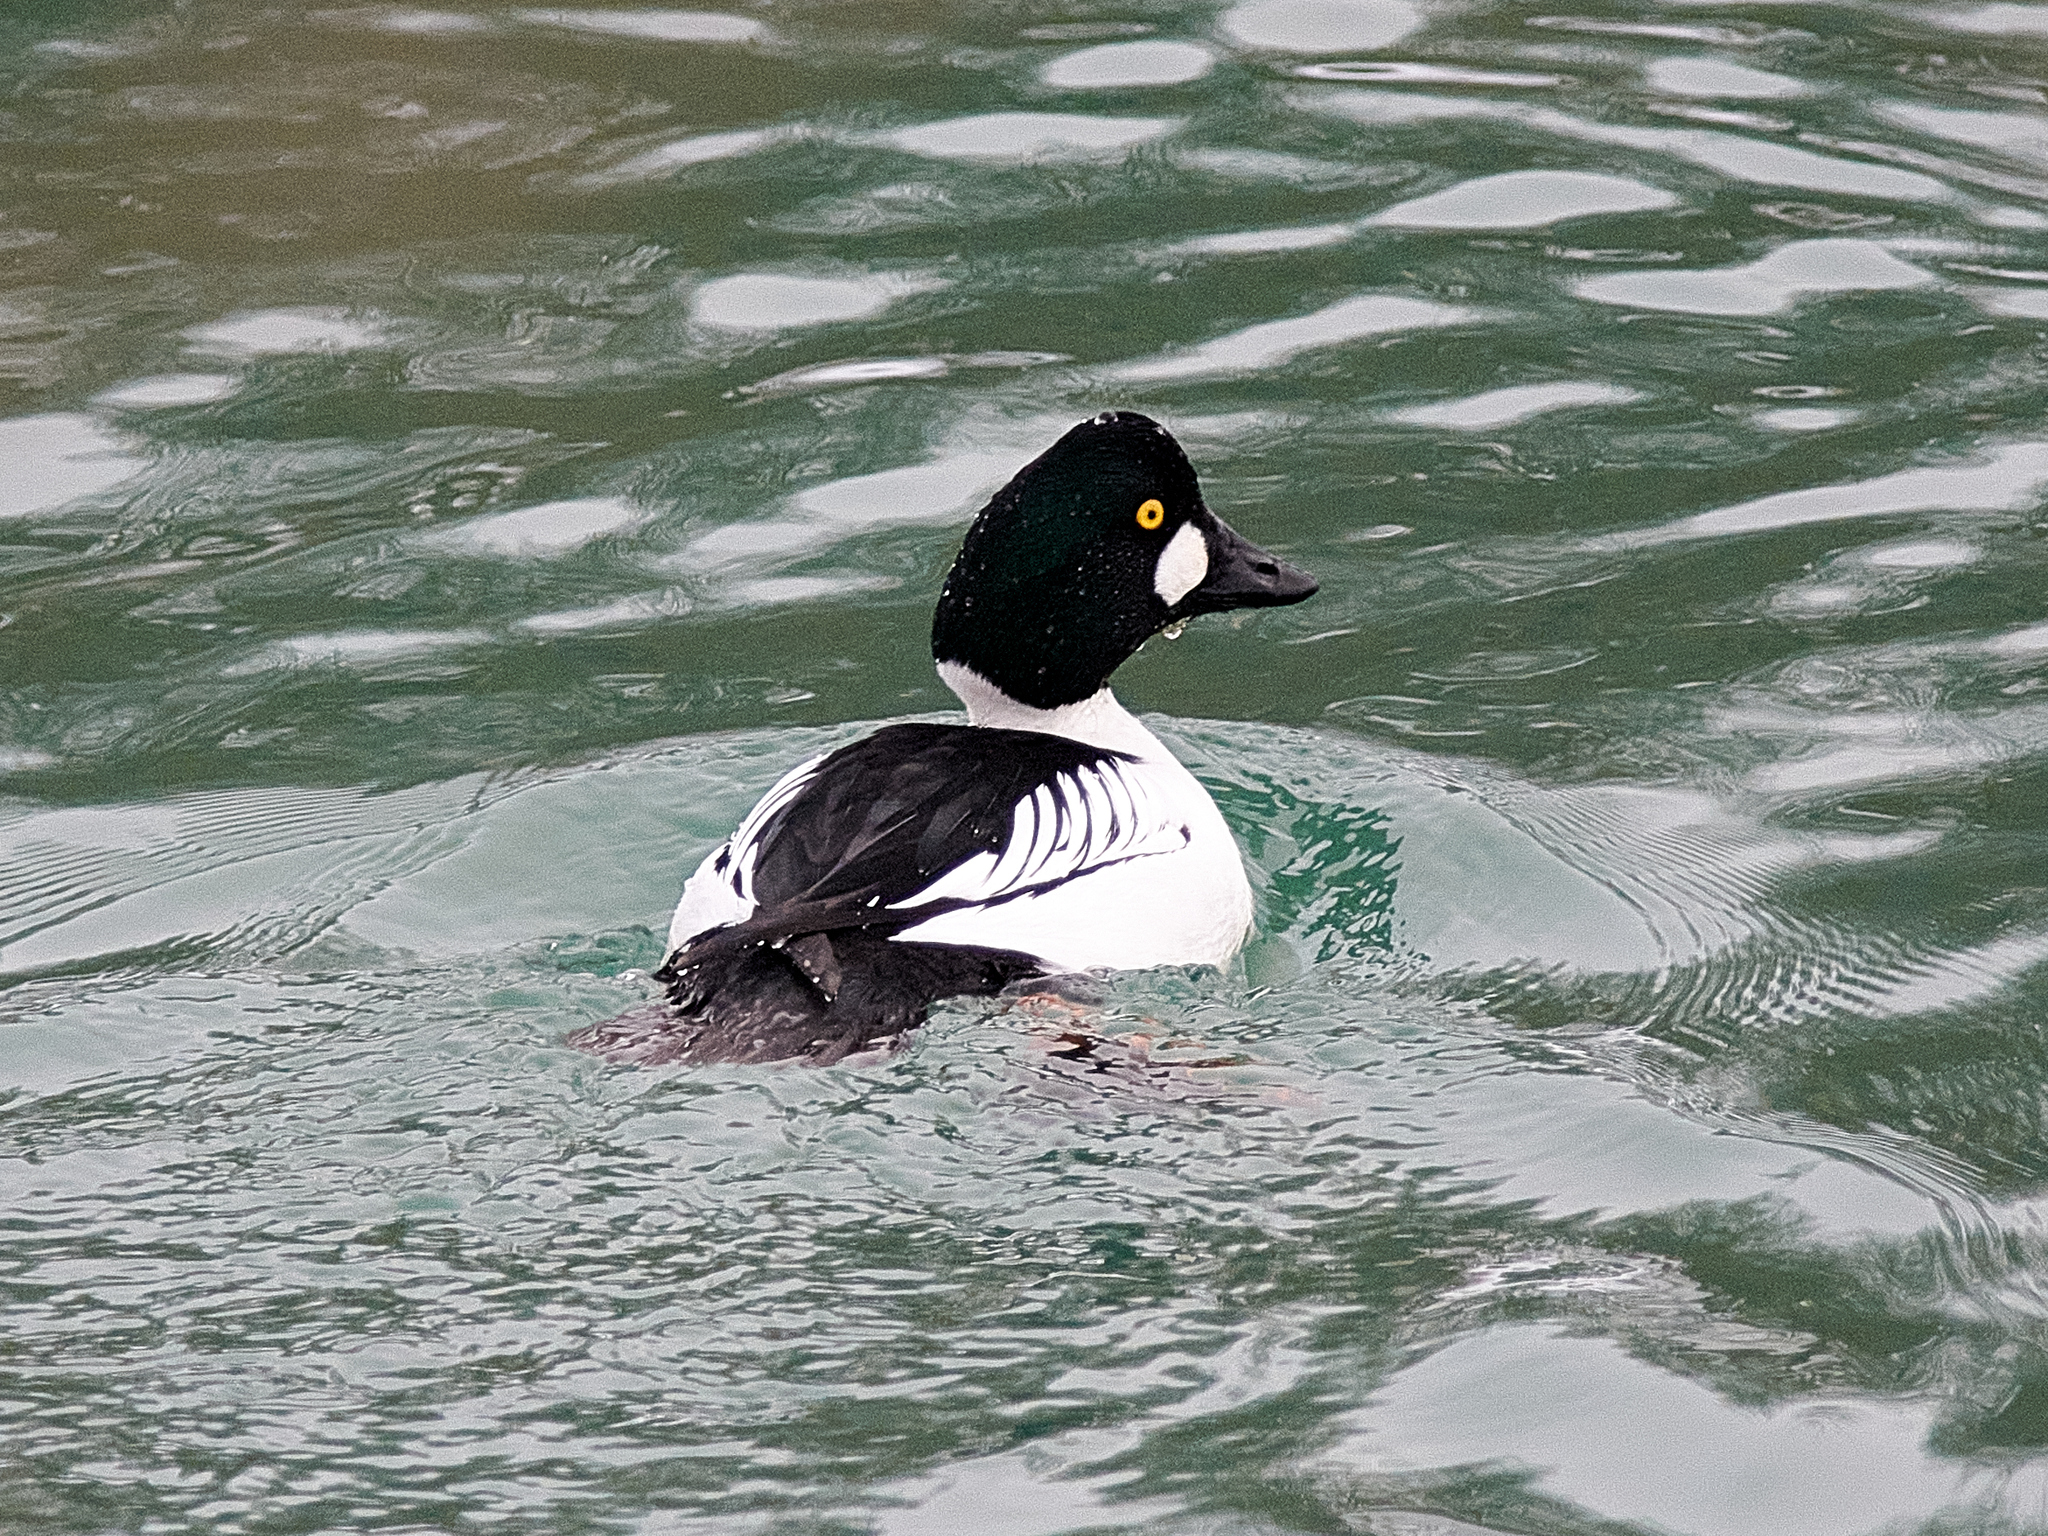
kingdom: Animalia
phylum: Chordata
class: Aves
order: Anseriformes
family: Anatidae
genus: Bucephala
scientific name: Bucephala clangula
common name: Common goldeneye
